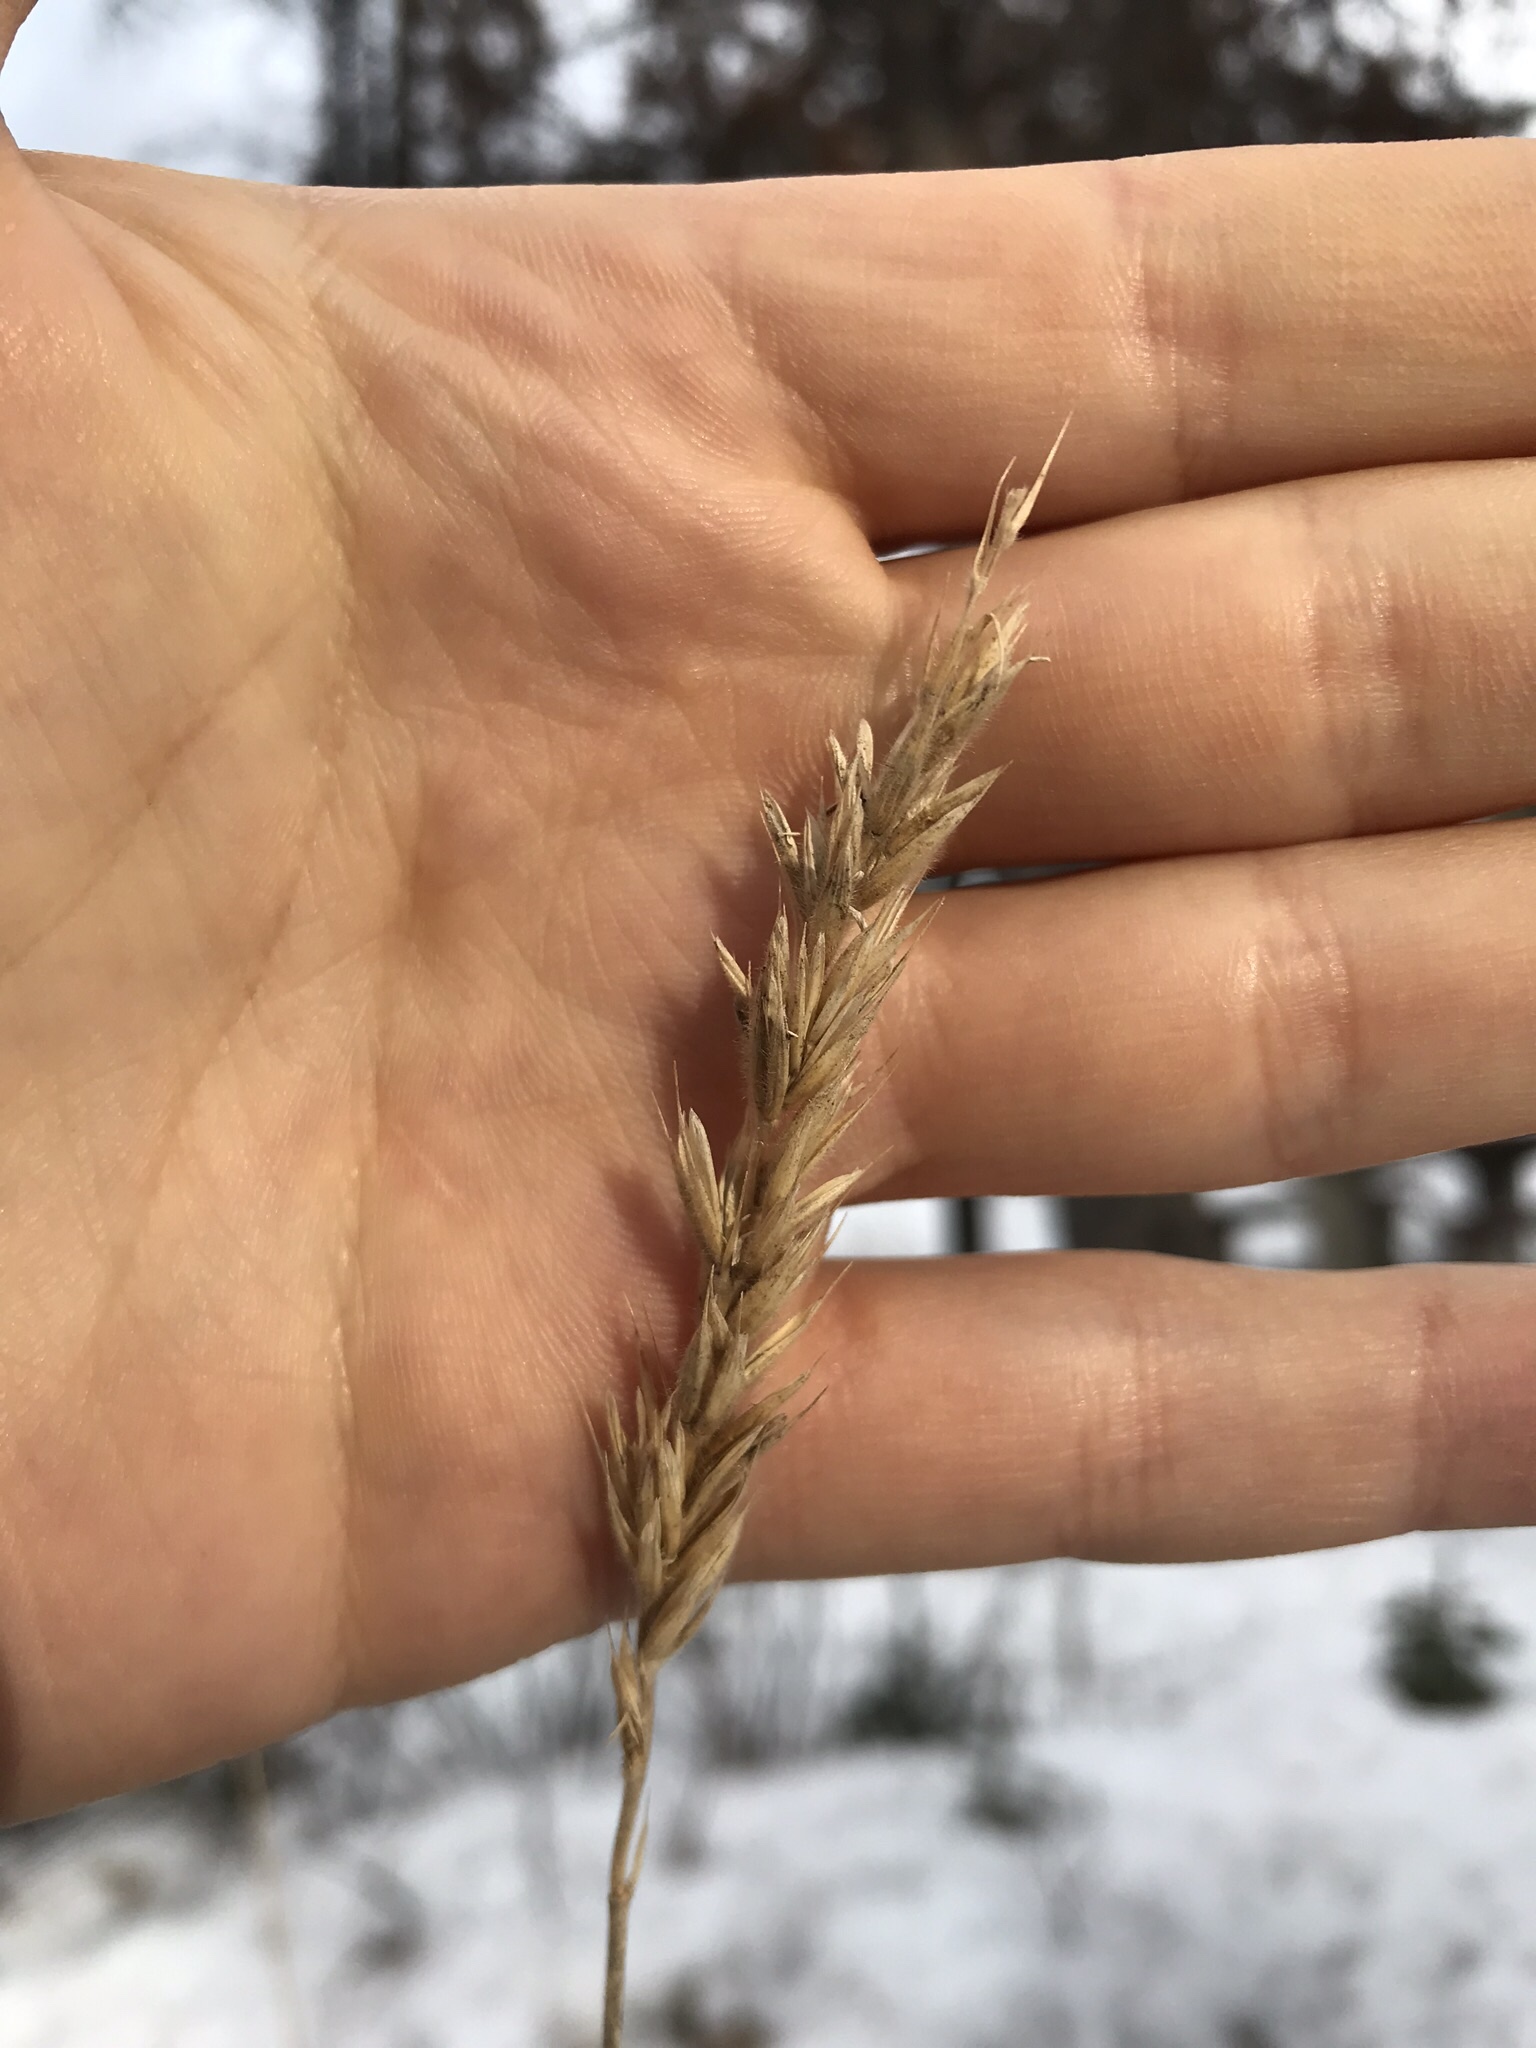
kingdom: Plantae
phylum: Tracheophyta
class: Liliopsida
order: Poales
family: Poaceae
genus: Leymus
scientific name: Leymus innovatus
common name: Boreal wild rye
